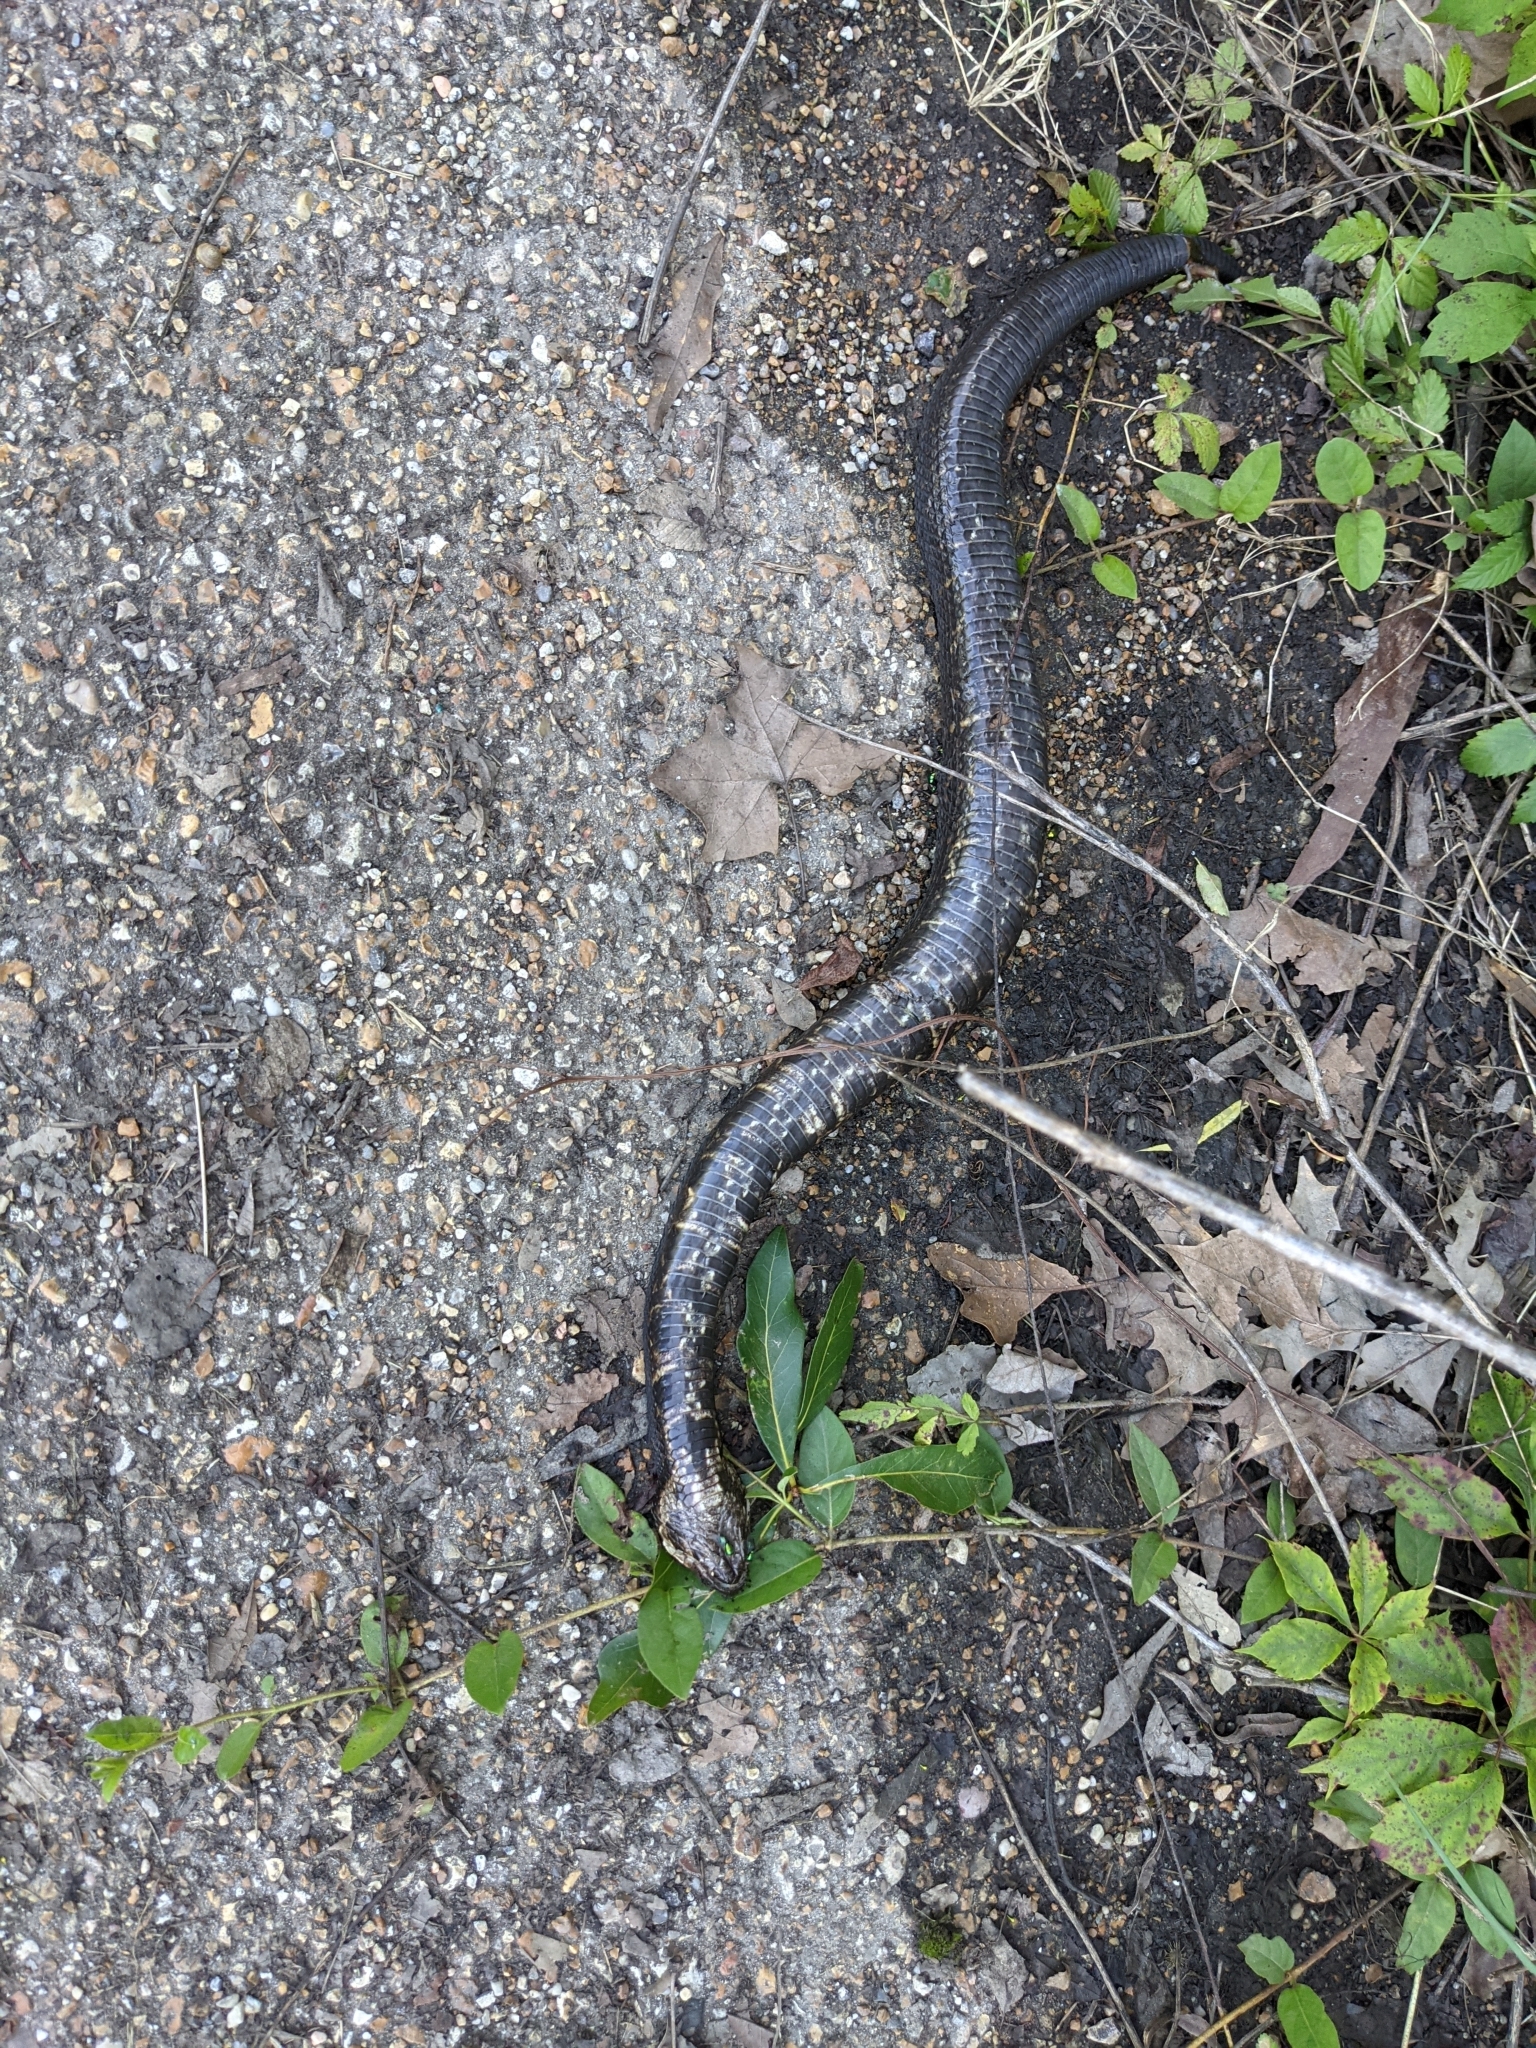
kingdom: Animalia
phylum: Chordata
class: Squamata
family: Viperidae
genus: Agkistrodon
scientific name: Agkistrodon piscivorus
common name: Cottonmouth
